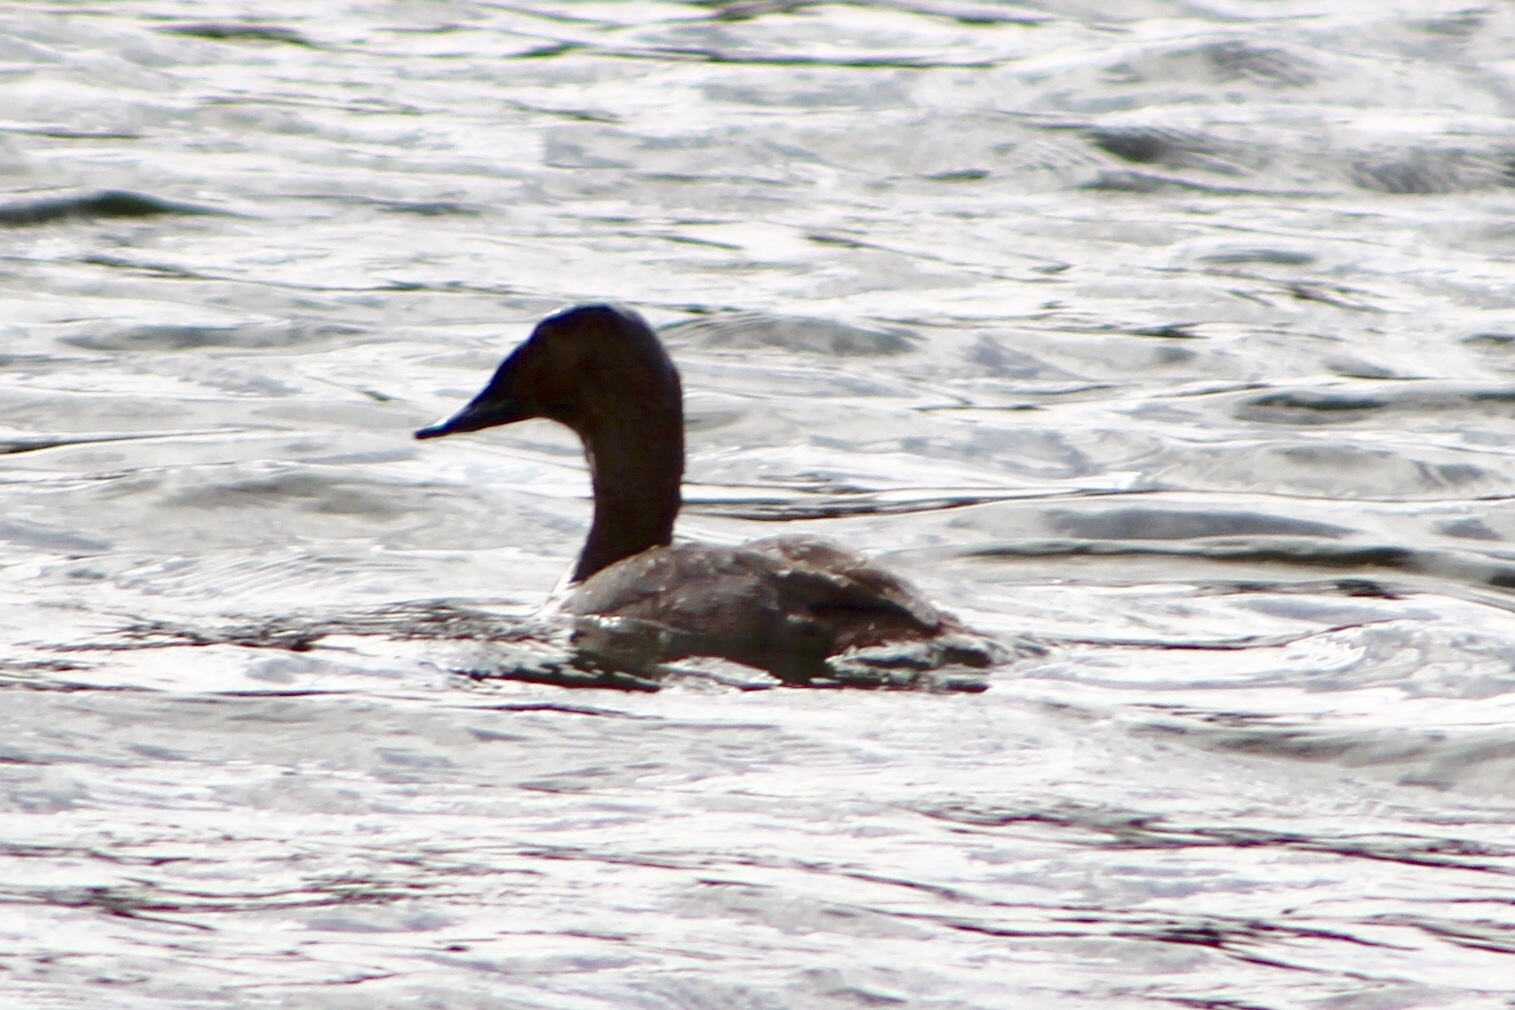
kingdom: Animalia
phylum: Chordata
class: Aves
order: Anseriformes
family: Anatidae
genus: Aythya
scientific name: Aythya valisineria
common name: Canvasback
